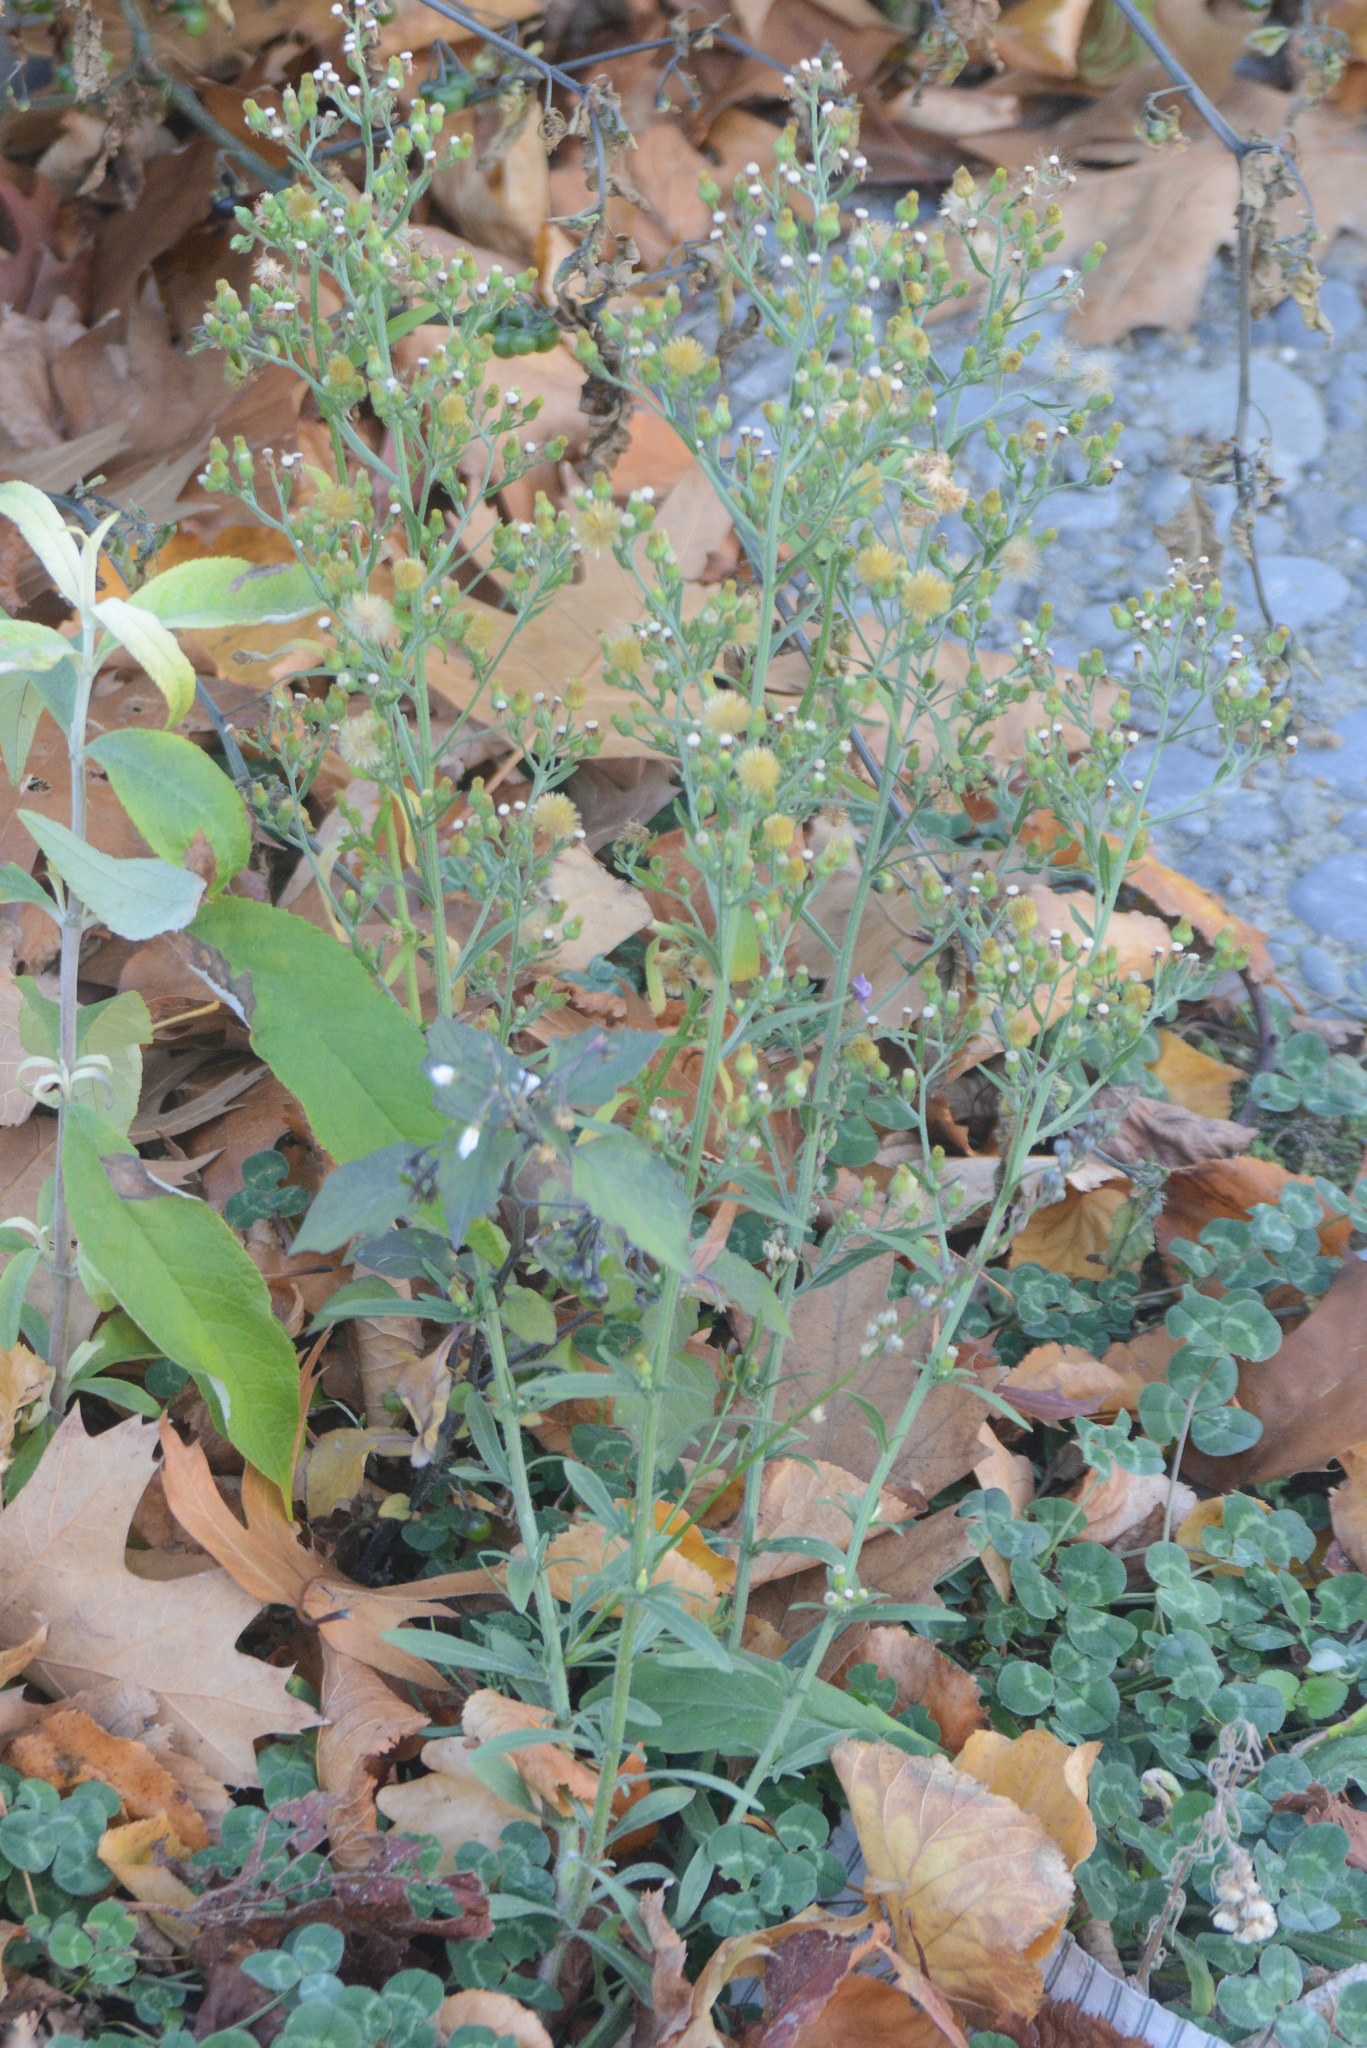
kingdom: Plantae
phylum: Tracheophyta
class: Magnoliopsida
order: Asterales
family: Asteraceae
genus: Erigeron
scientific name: Erigeron sumatrensis
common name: Daisy
